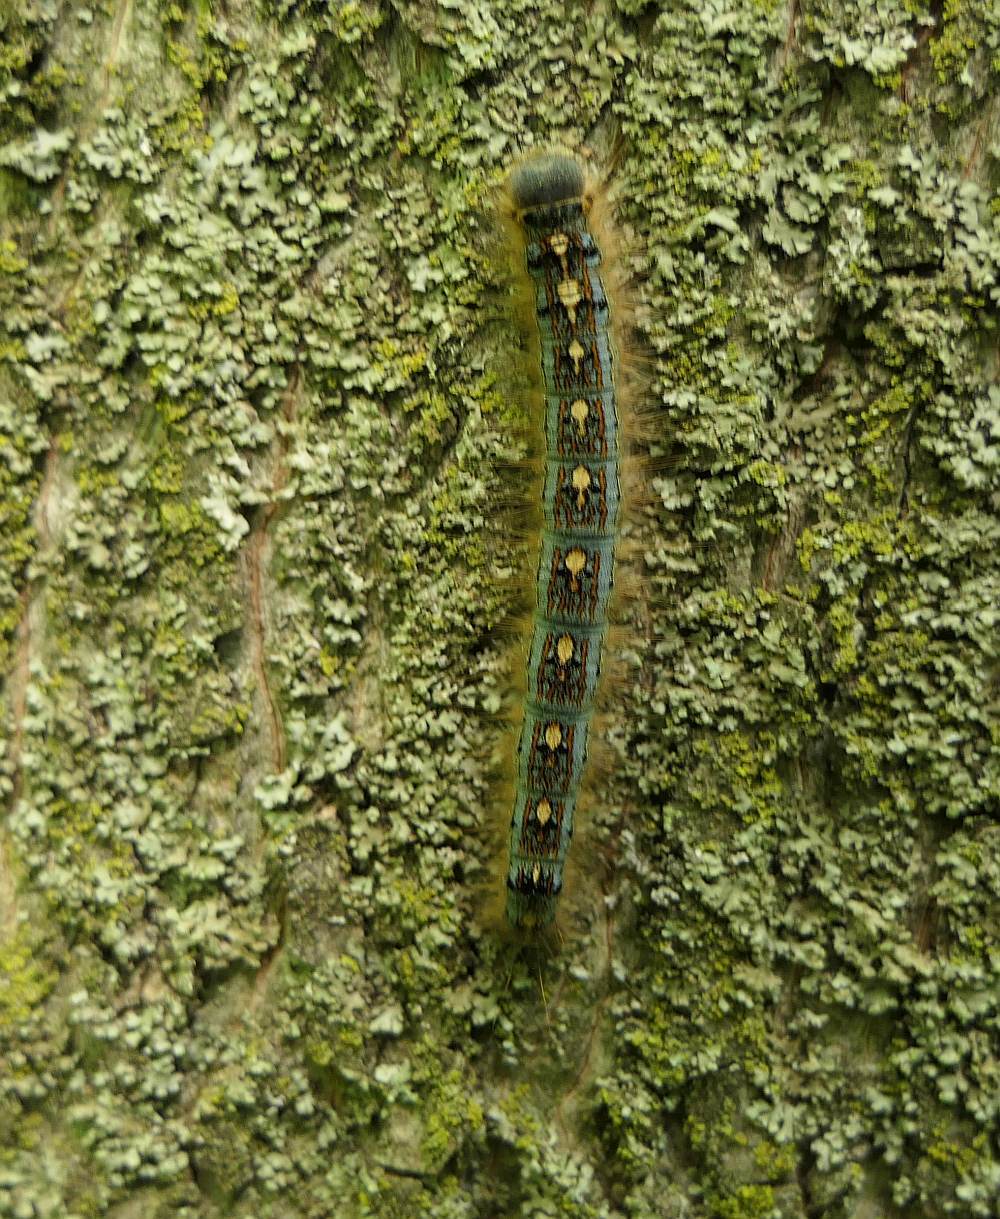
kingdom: Animalia
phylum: Arthropoda
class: Insecta
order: Lepidoptera
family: Lasiocampidae
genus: Malacosoma
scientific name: Malacosoma disstria
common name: Forest tent caterpillar
